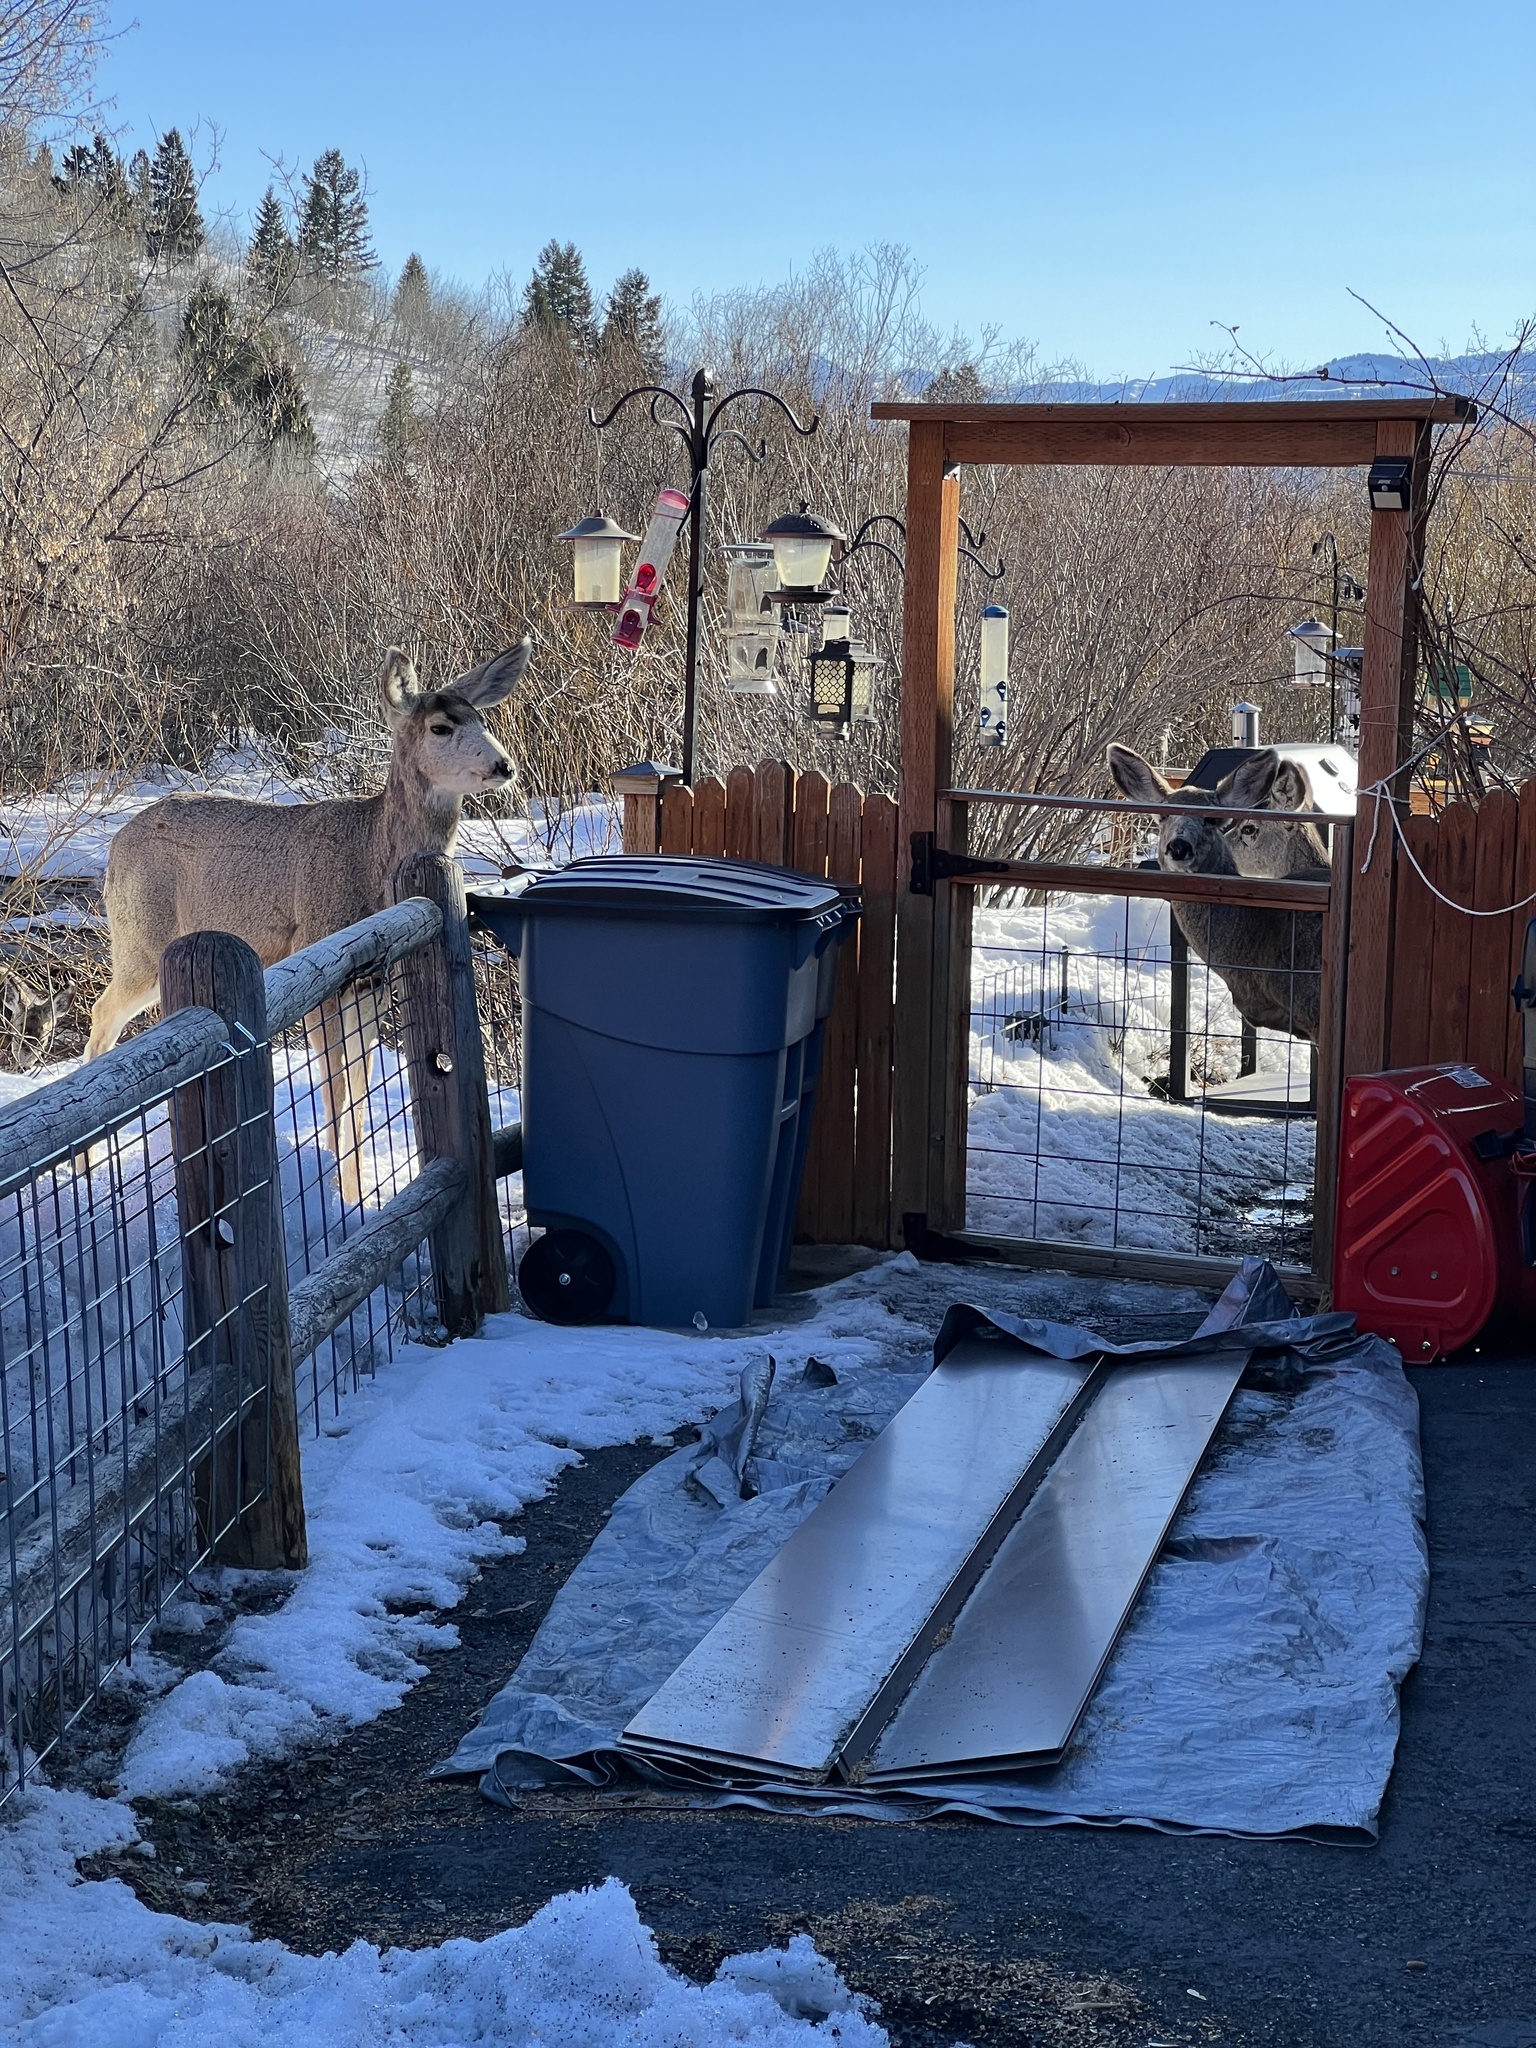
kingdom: Animalia
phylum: Chordata
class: Mammalia
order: Artiodactyla
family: Cervidae
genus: Odocoileus
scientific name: Odocoileus hemionus
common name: Mule deer
